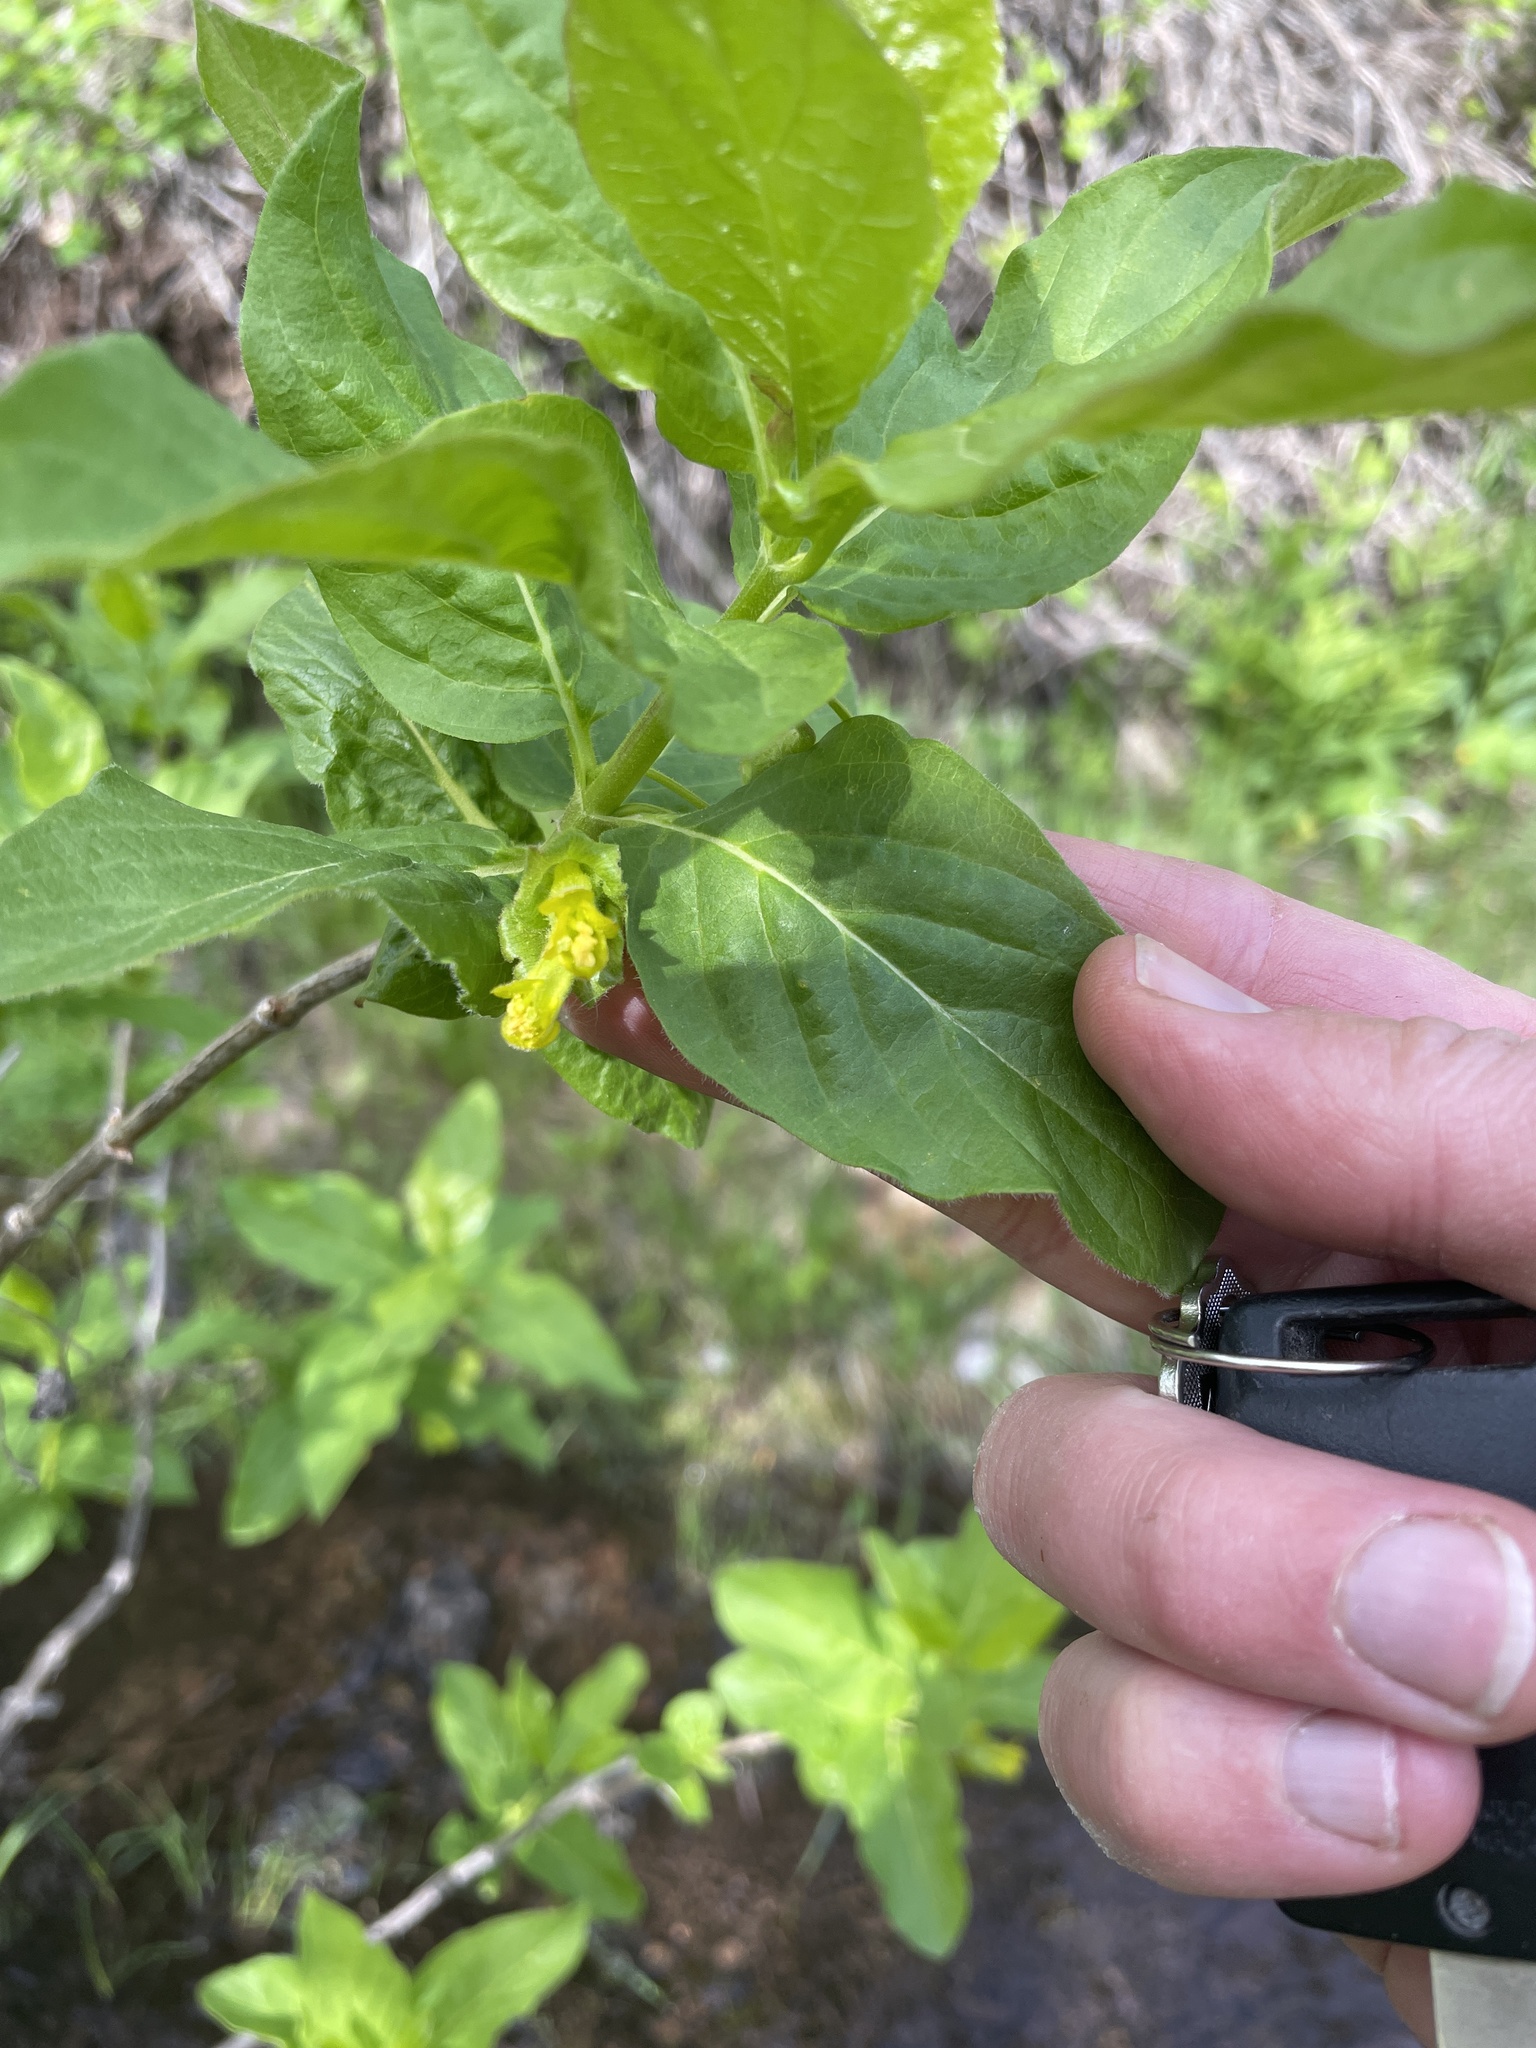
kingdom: Plantae
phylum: Tracheophyta
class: Magnoliopsida
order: Dipsacales
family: Caprifoliaceae
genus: Lonicera
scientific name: Lonicera involucrata
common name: Californian honeysuckle
